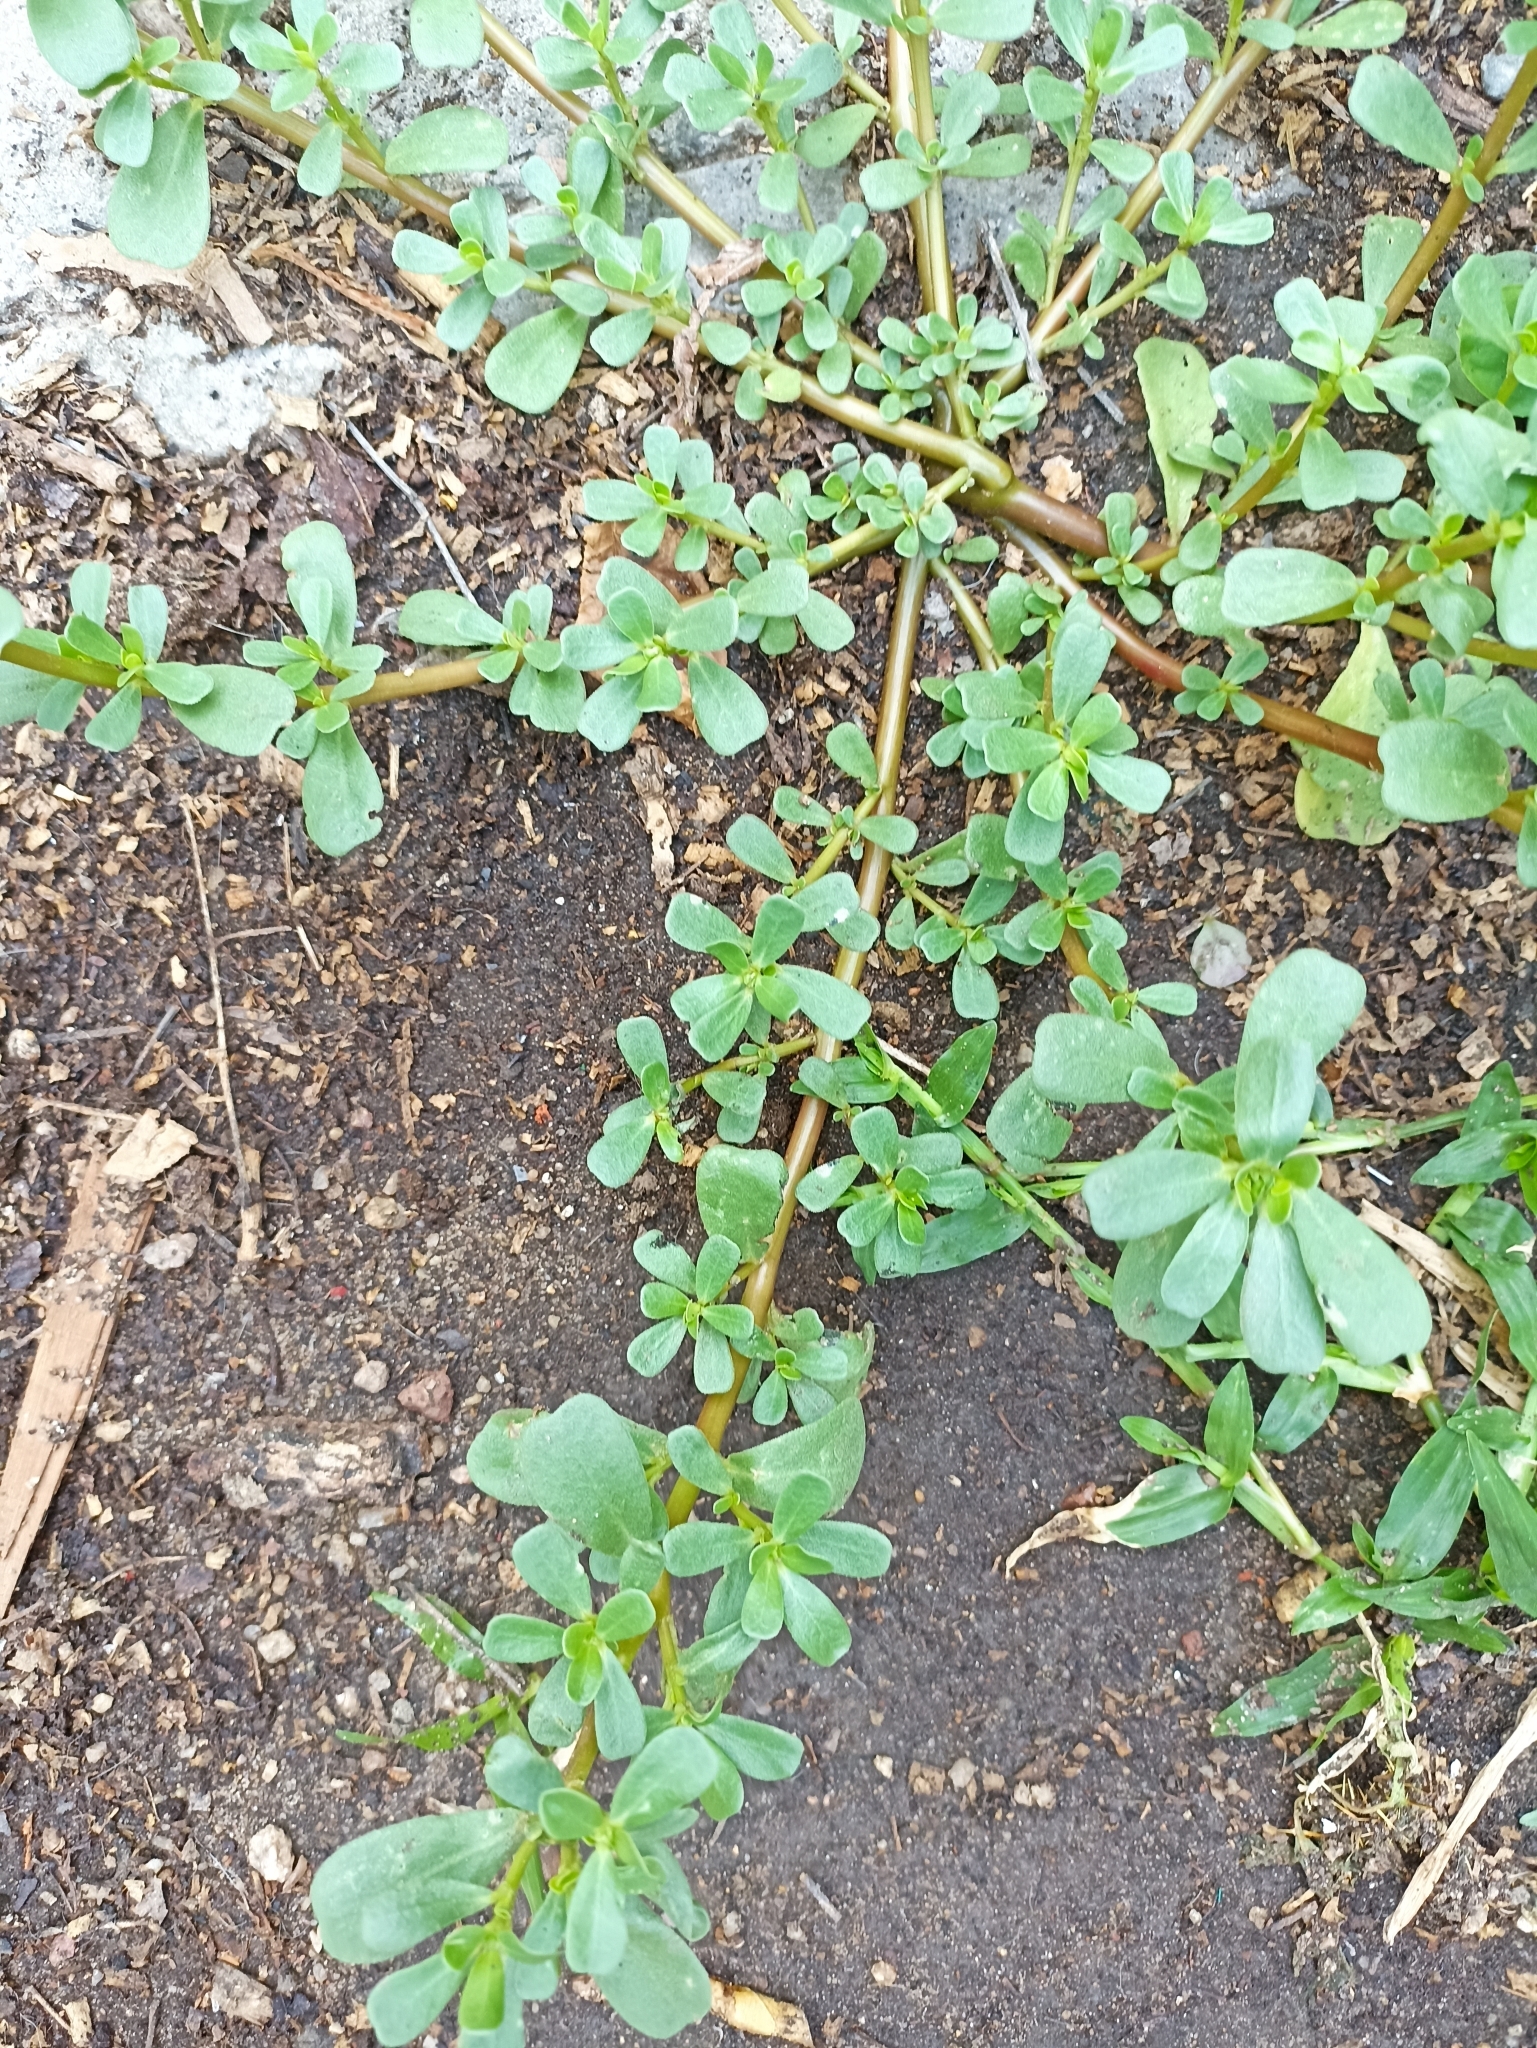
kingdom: Plantae
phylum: Tracheophyta
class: Magnoliopsida
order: Caryophyllales
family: Portulacaceae
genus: Portulaca
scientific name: Portulaca oleracea
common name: Common purslane
